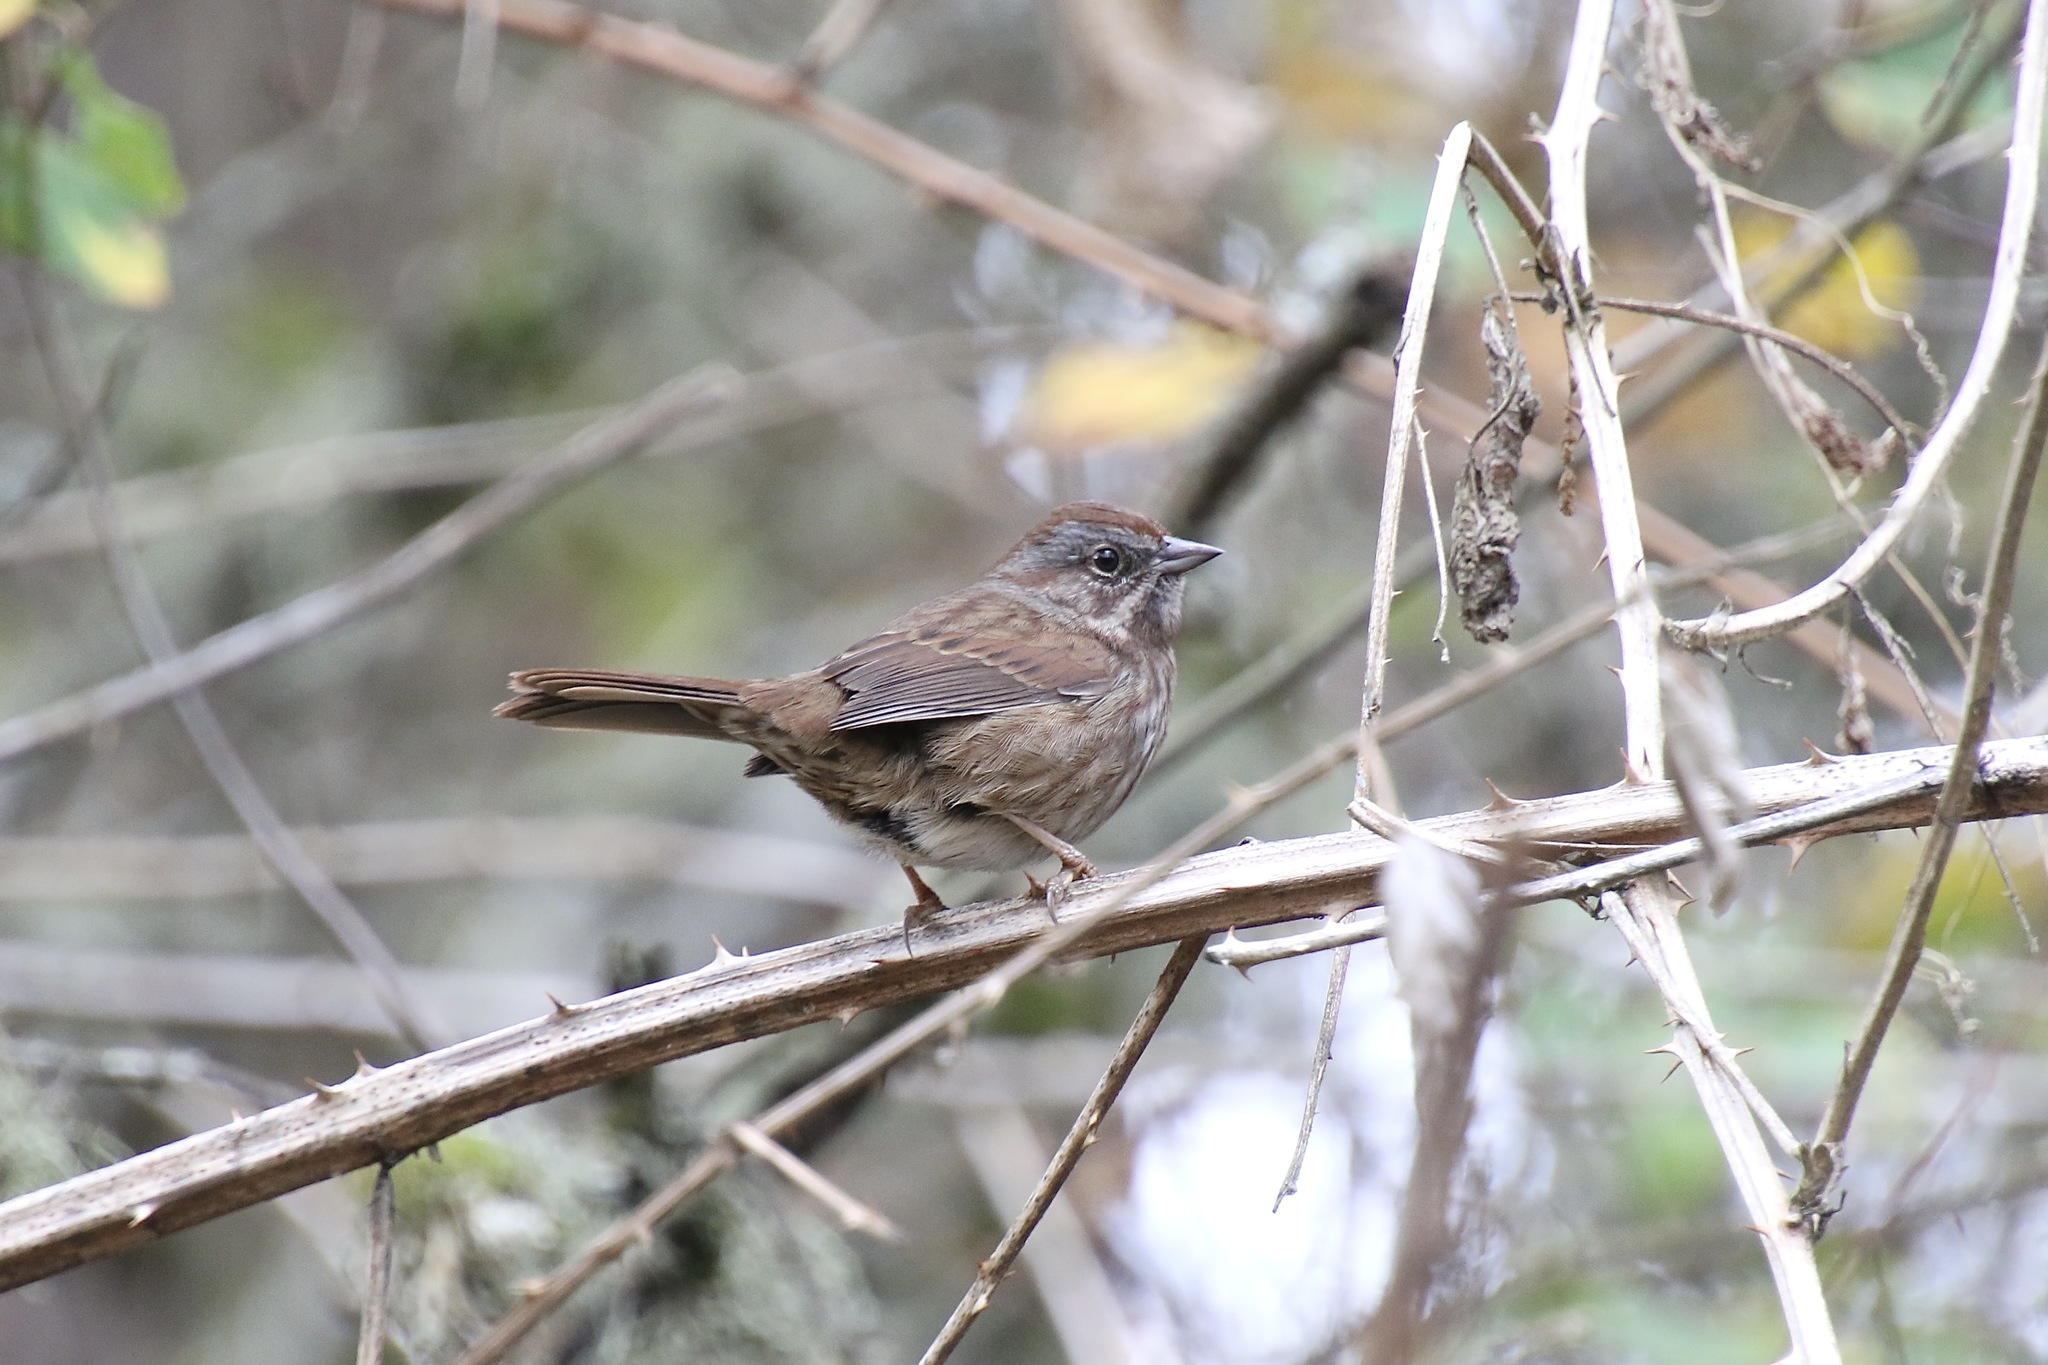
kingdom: Animalia
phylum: Chordata
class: Aves
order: Passeriformes
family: Passerellidae
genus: Melospiza
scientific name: Melospiza melodia
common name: Song sparrow
